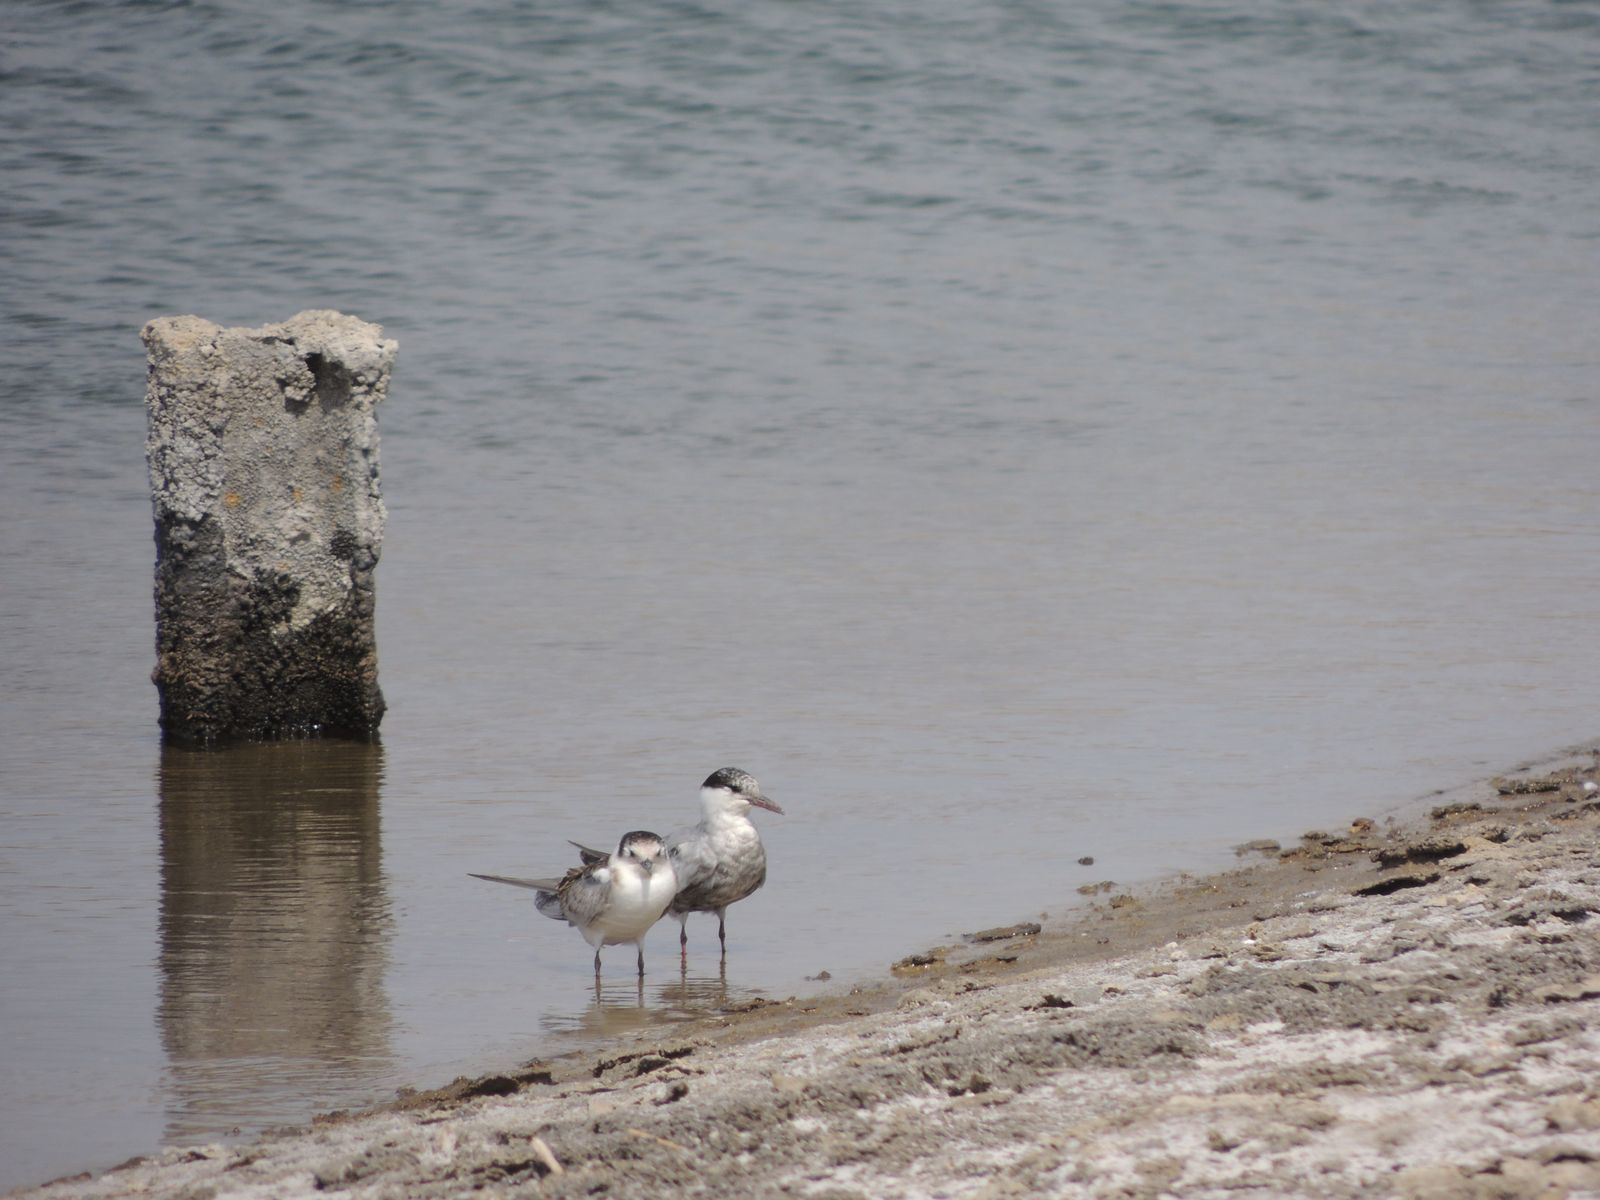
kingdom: Animalia
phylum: Chordata
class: Aves
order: Charadriiformes
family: Laridae
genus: Chlidonias
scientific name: Chlidonias hybrida
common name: Whiskered tern
